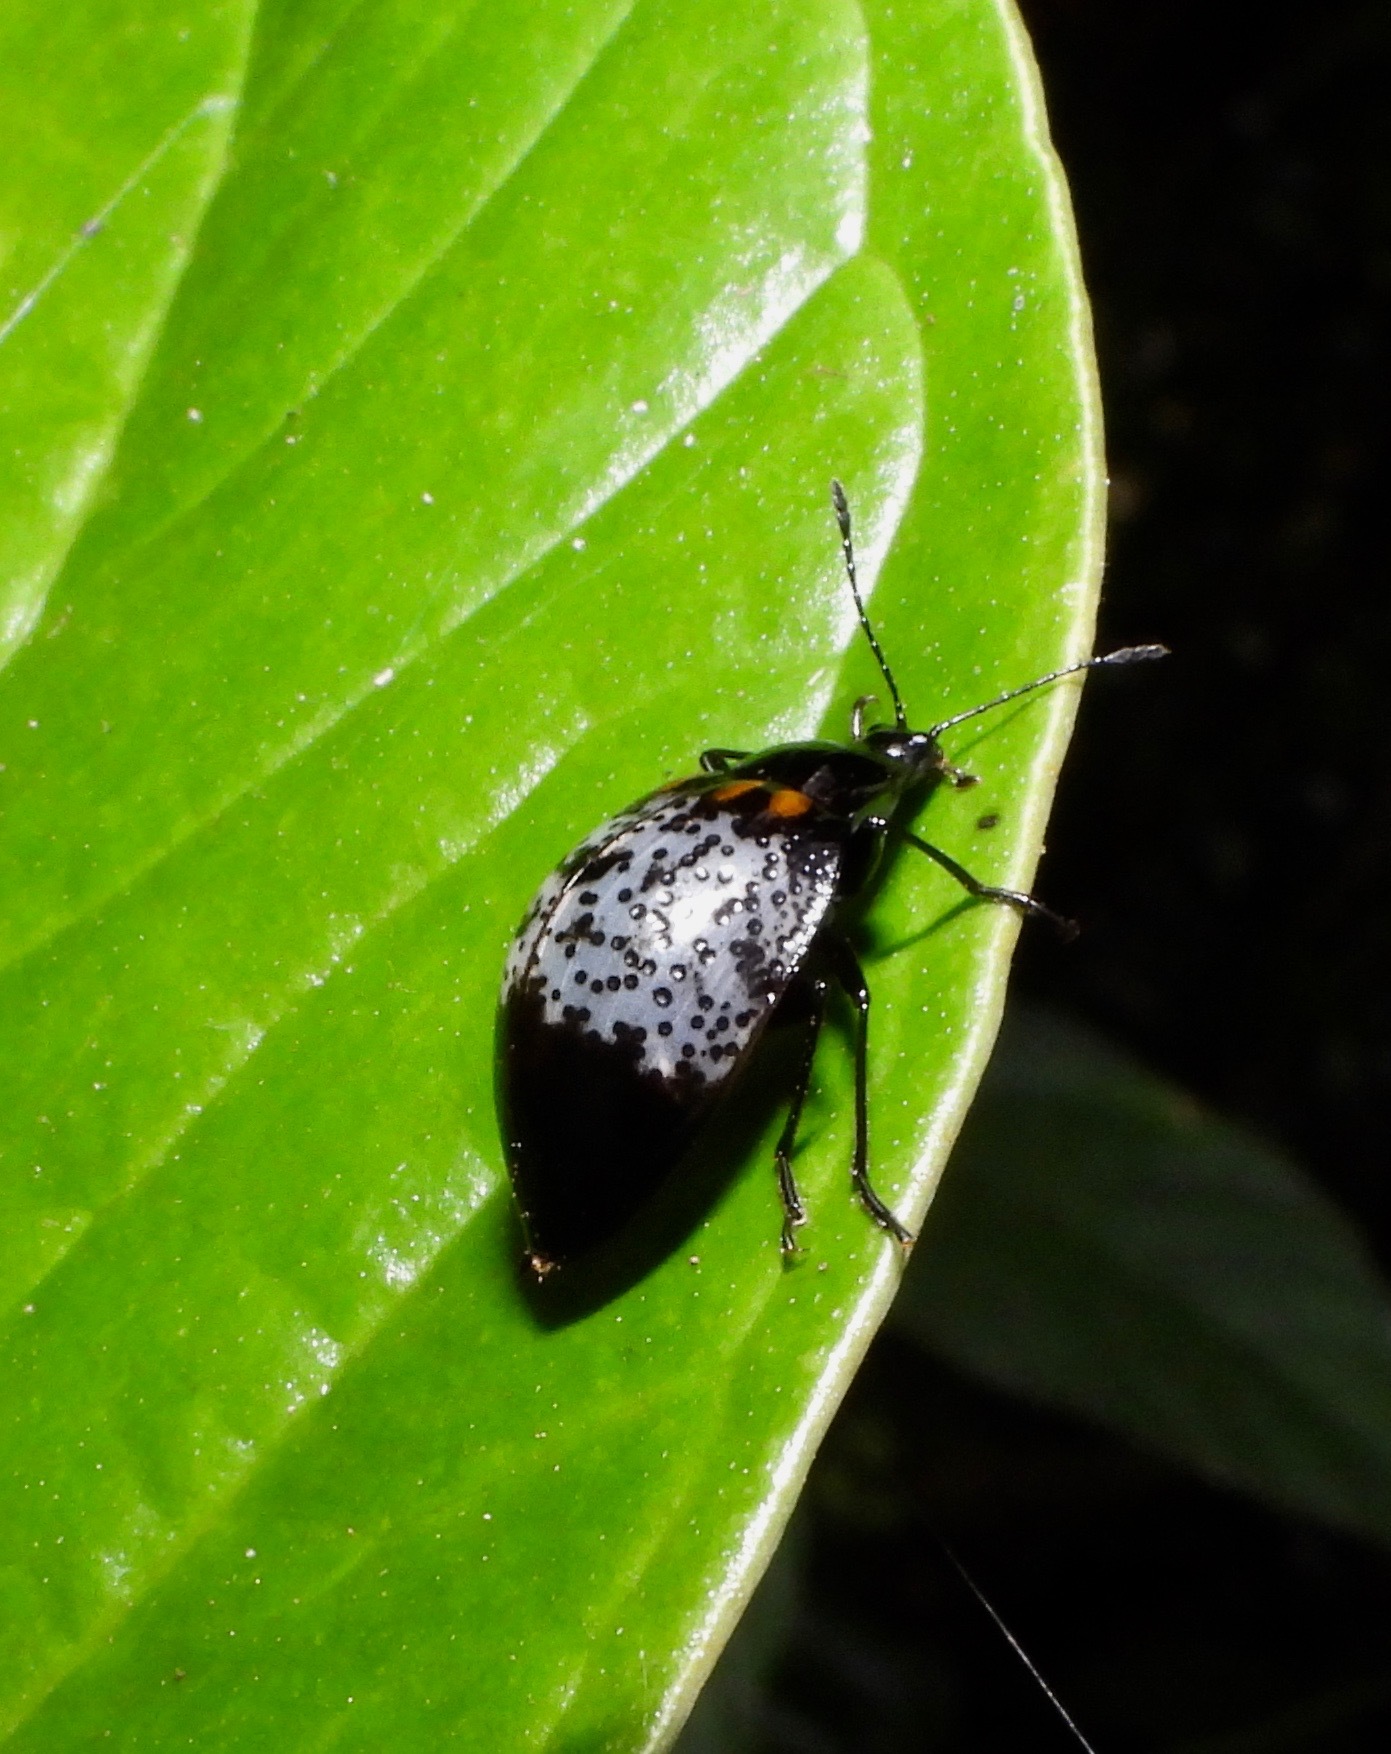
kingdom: Animalia
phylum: Arthropoda
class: Insecta
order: Coleoptera
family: Erotylidae
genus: Prepopharus
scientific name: Prepopharus
